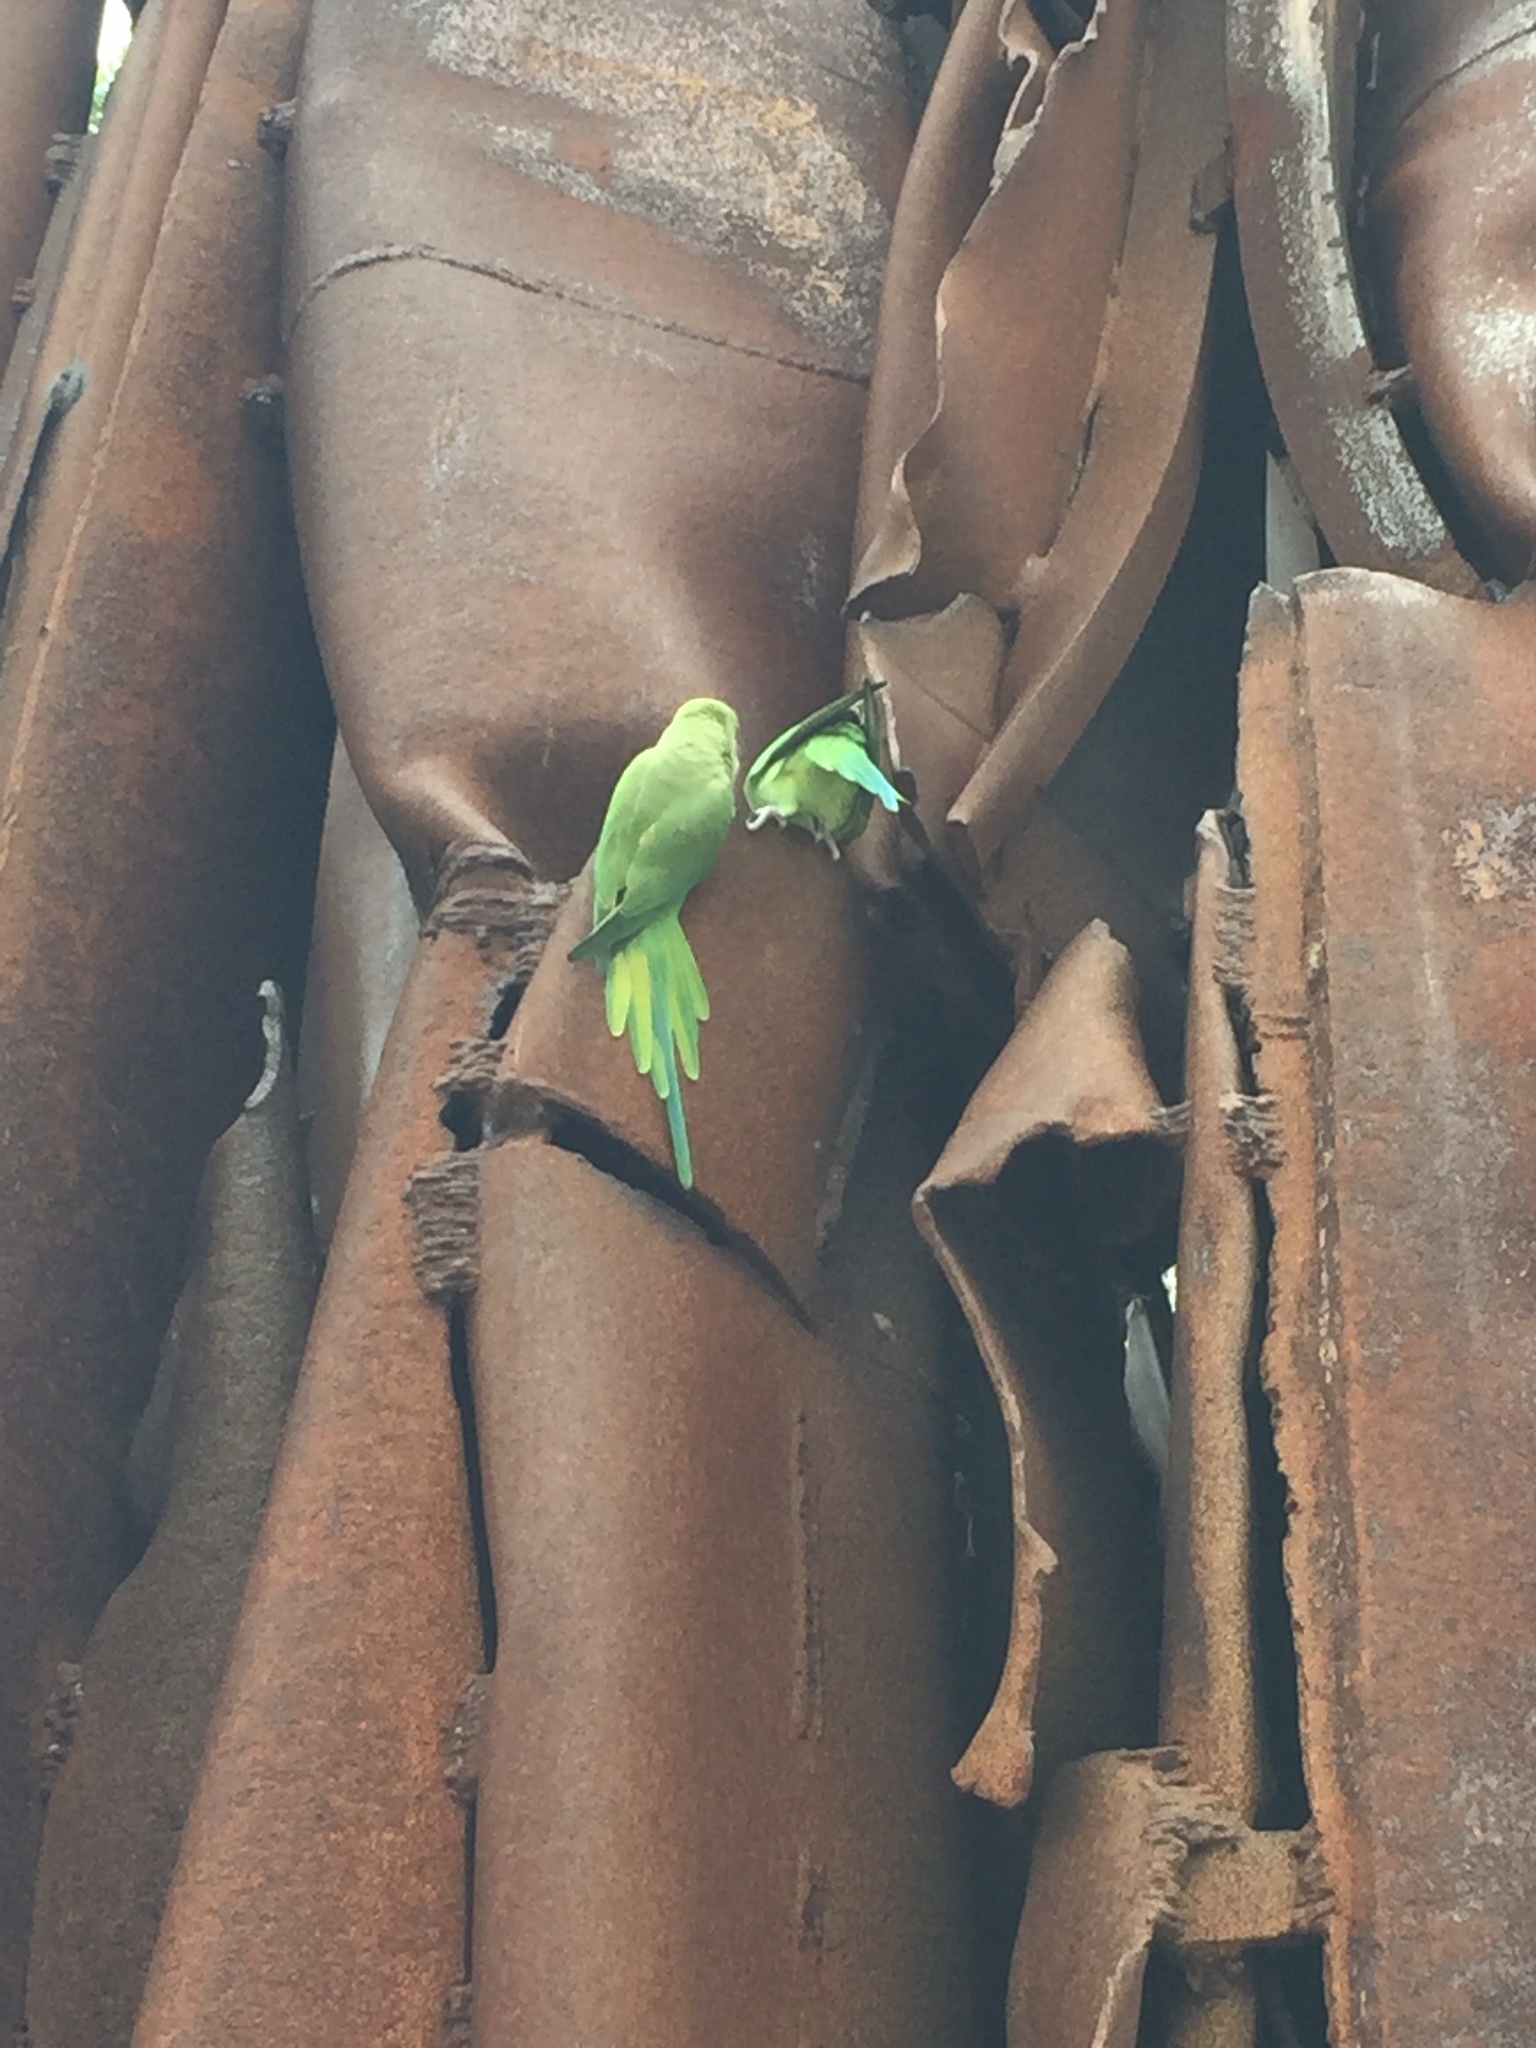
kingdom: Animalia
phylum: Chordata
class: Aves
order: Psittaciformes
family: Psittacidae
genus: Psittacula
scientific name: Psittacula krameri
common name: Rose-ringed parakeet
